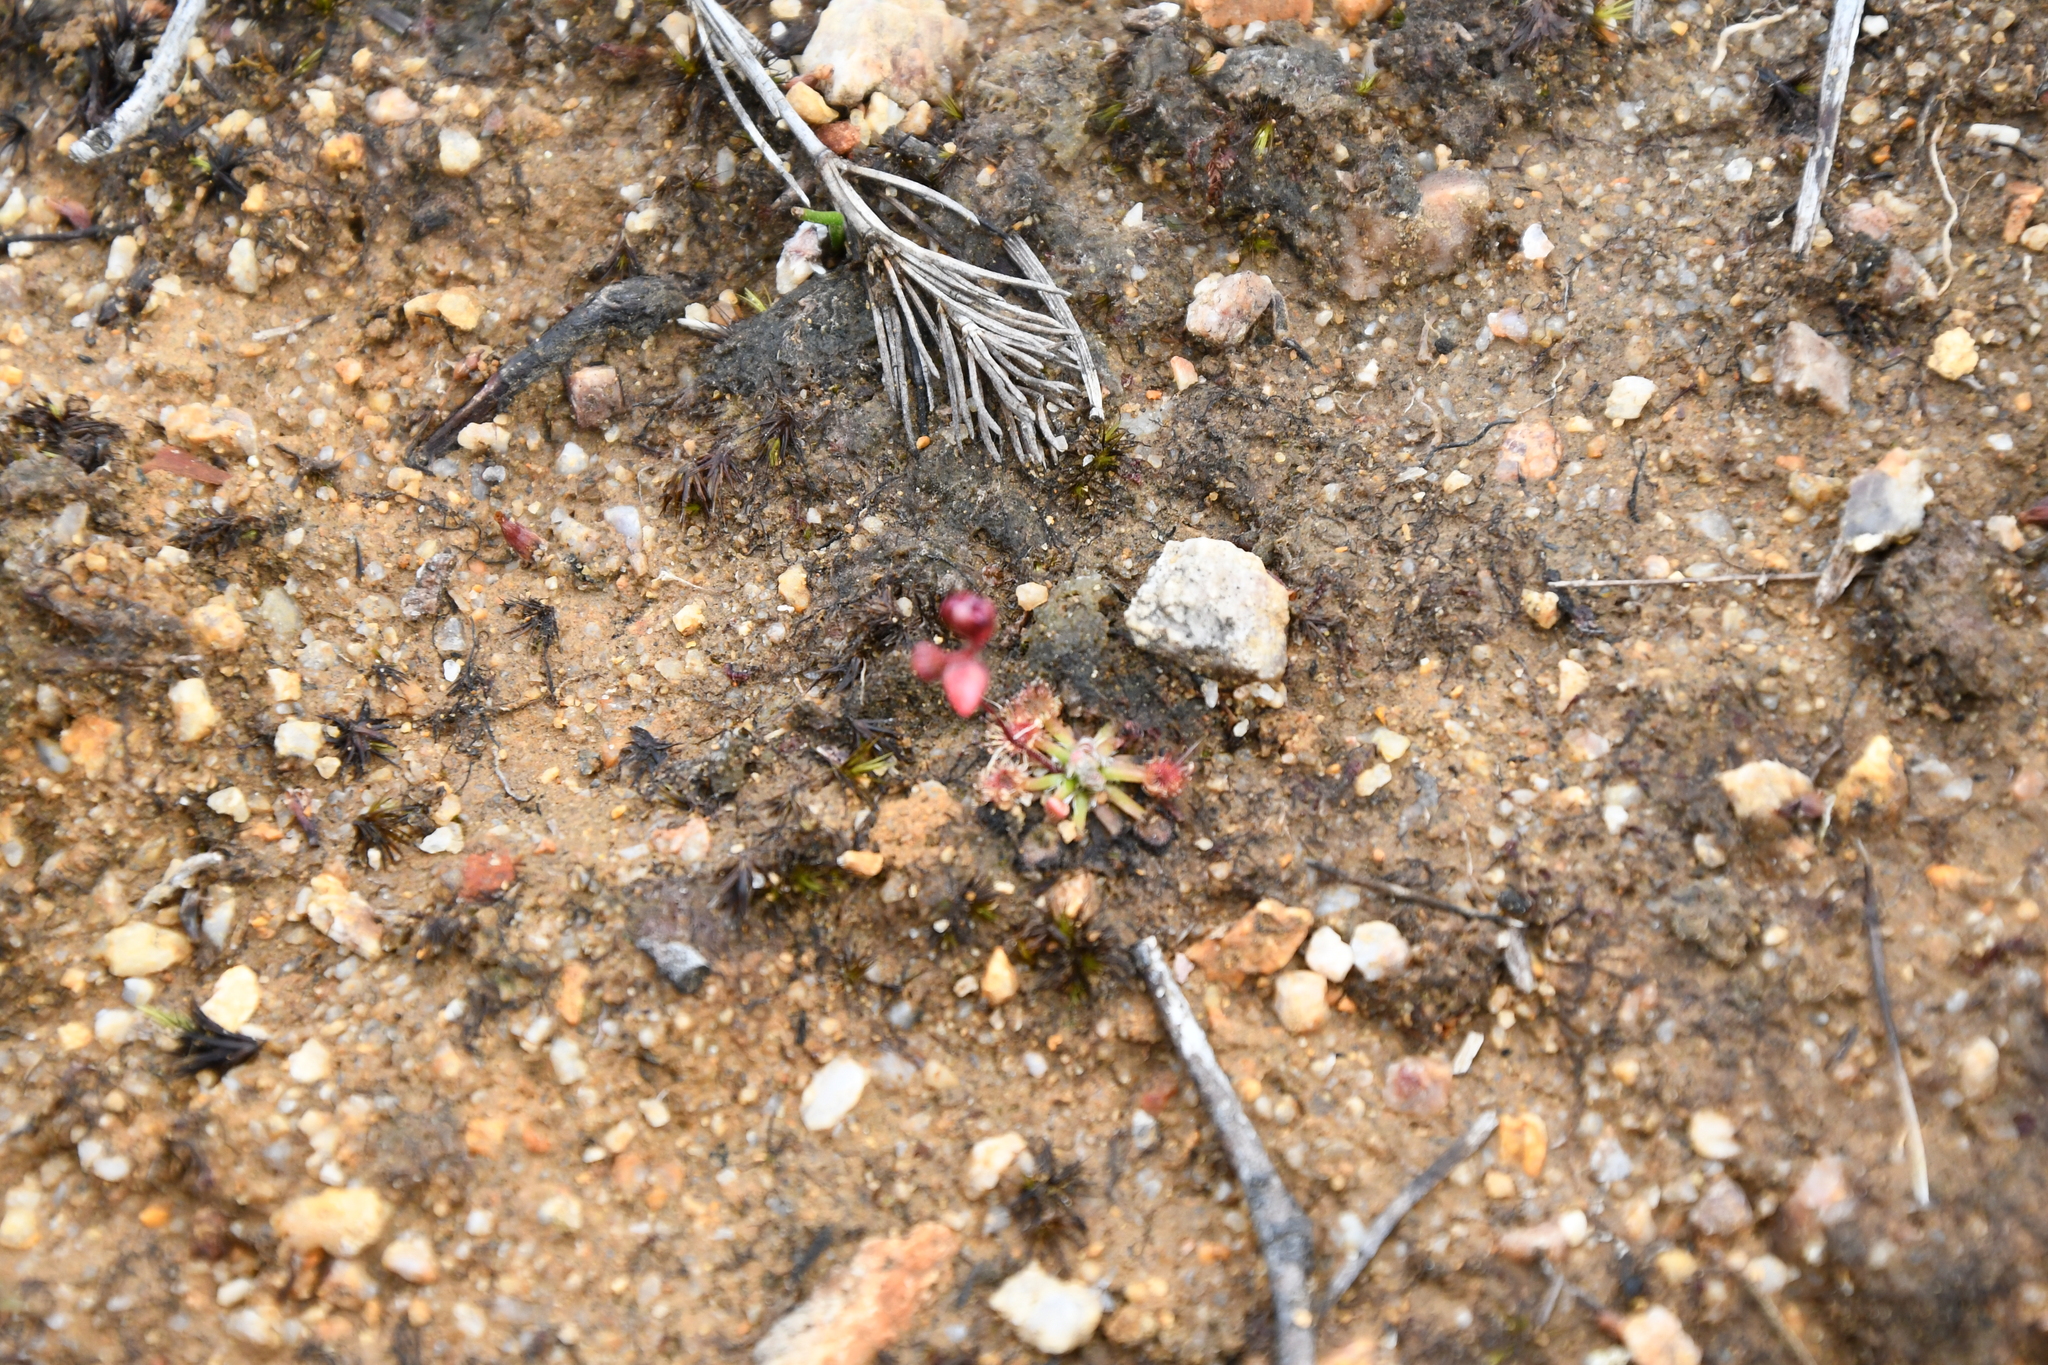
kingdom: Plantae
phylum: Tracheophyta
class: Magnoliopsida
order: Caryophyllales
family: Droseraceae
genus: Drosera
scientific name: Drosera platystigma
